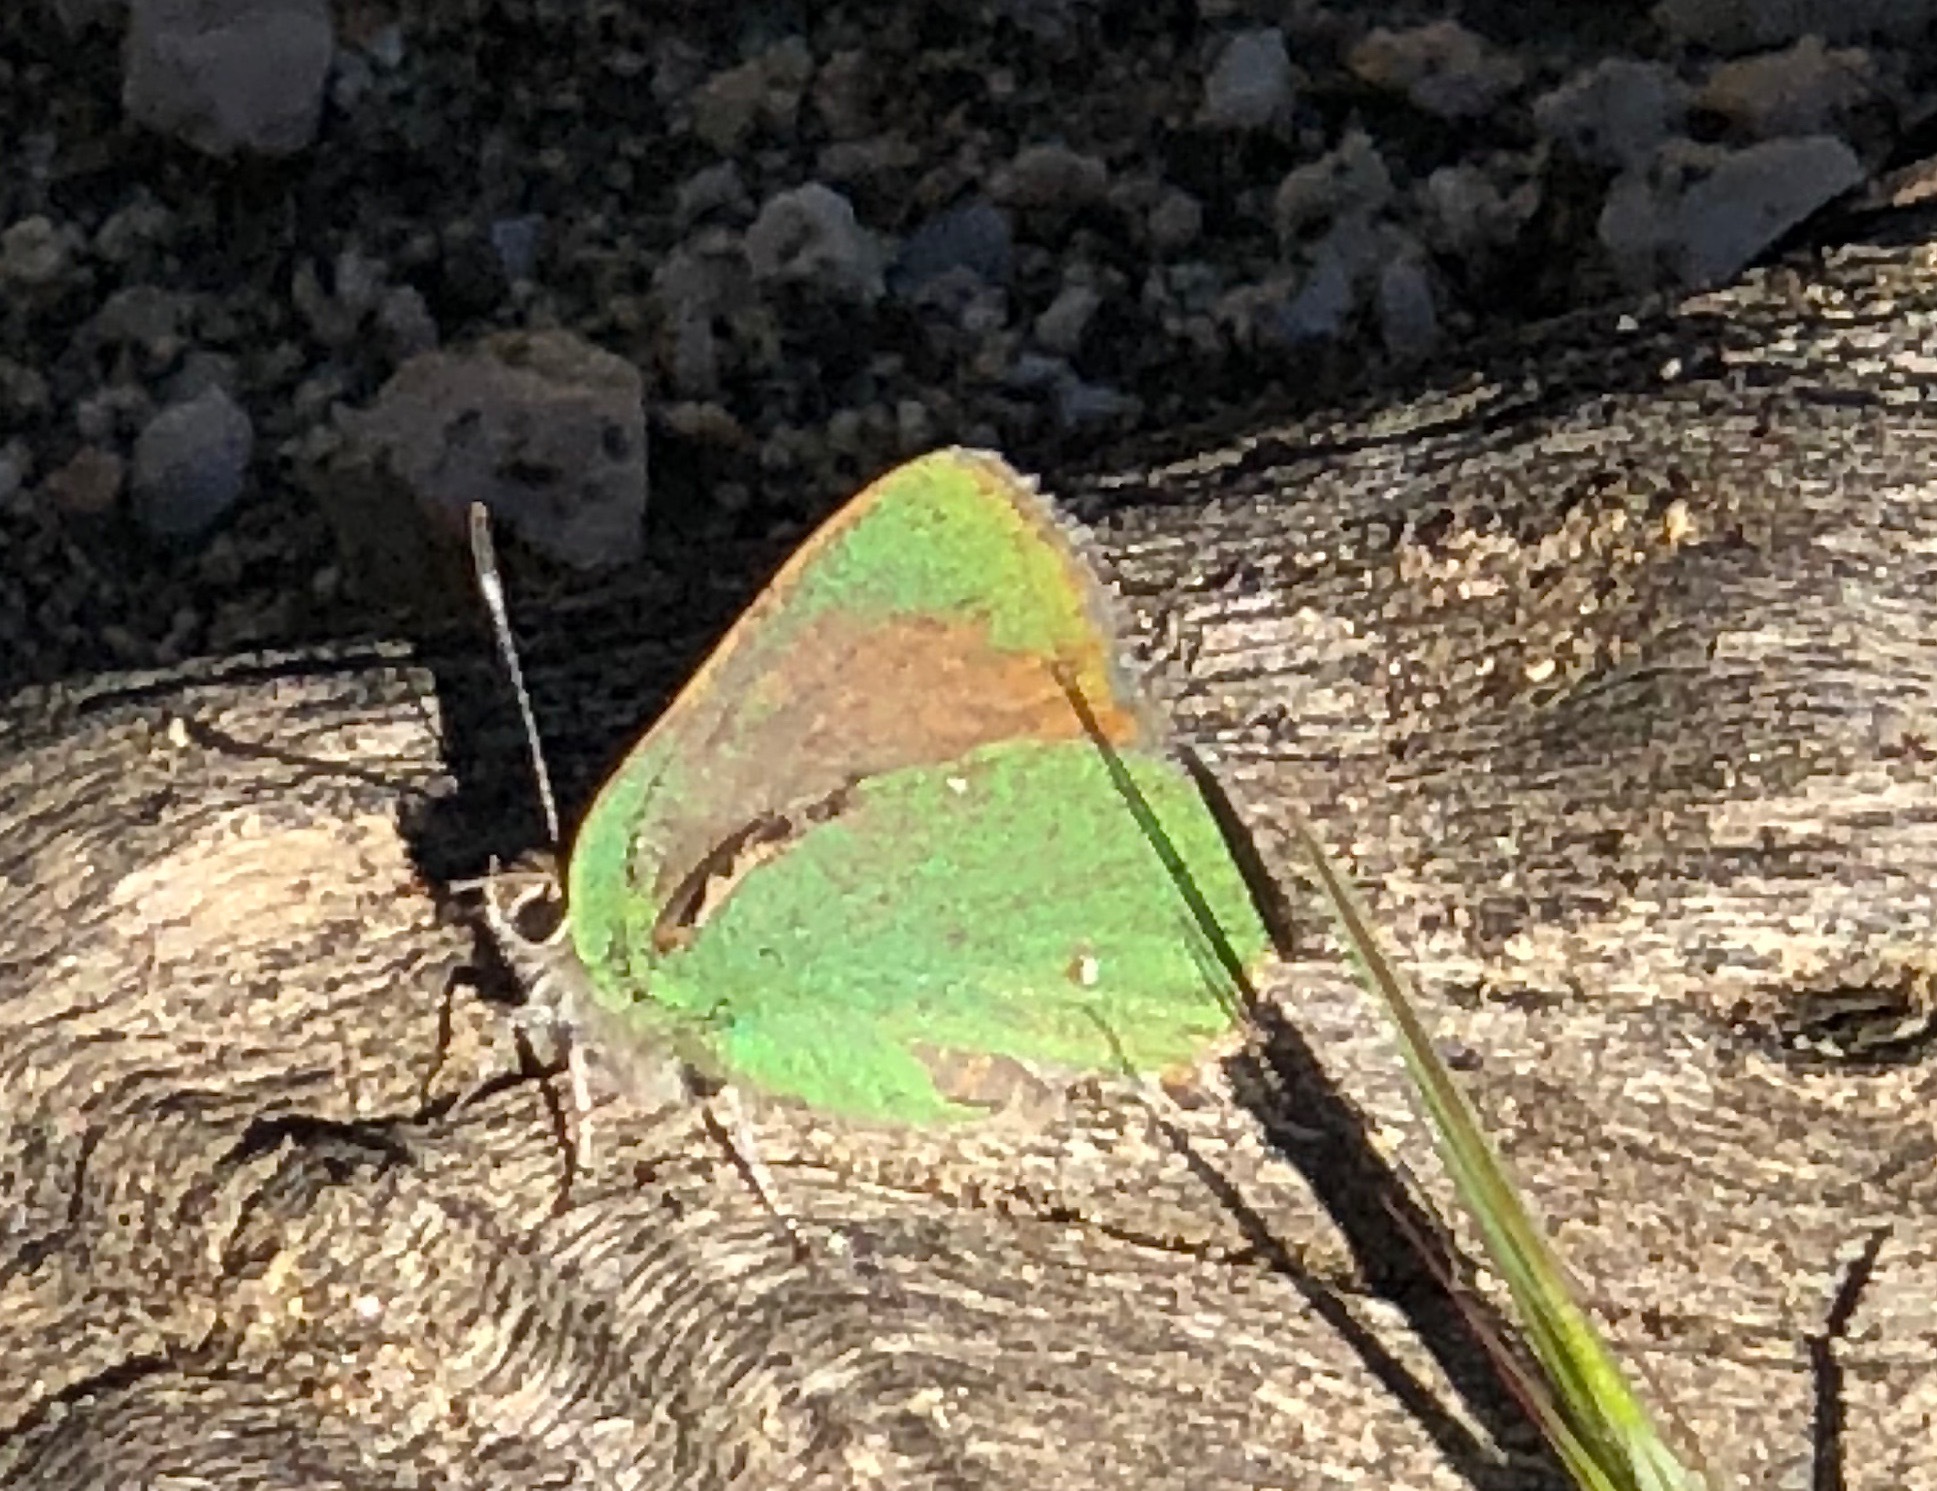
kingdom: Animalia
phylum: Arthropoda
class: Insecta
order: Lepidoptera
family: Lycaenidae
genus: Callophrys
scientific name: Callophrys dumetorum
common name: Bramble hairstreak
